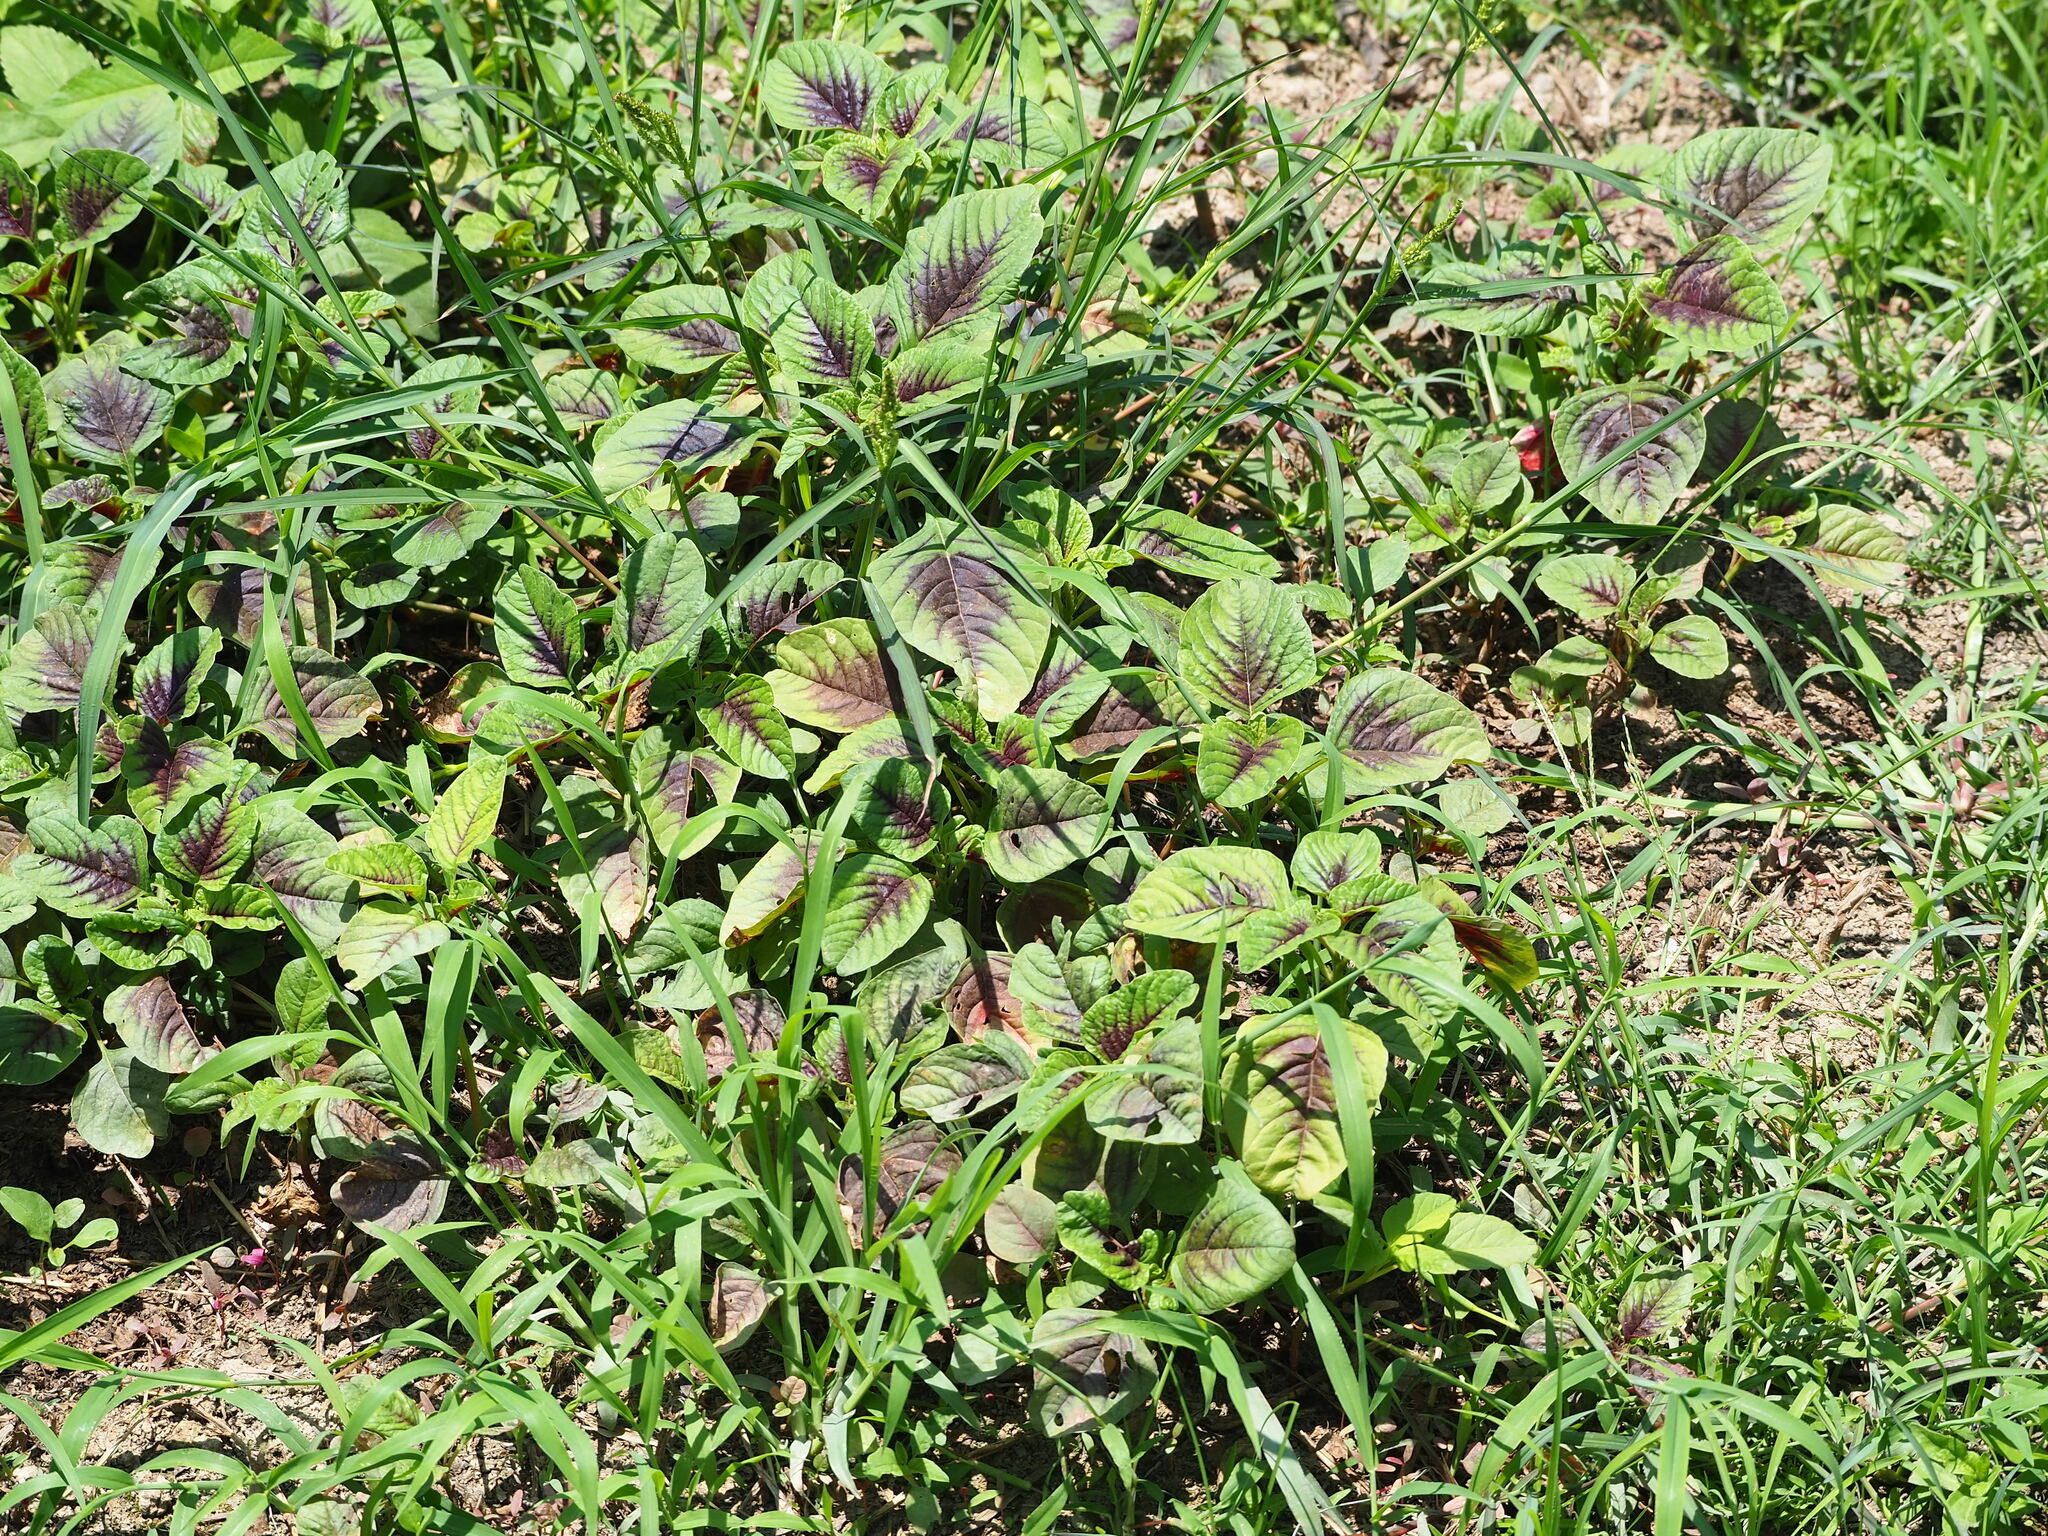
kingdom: Plantae
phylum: Tracheophyta
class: Magnoliopsida
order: Caryophyllales
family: Amaranthaceae
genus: Amaranthus
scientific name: Amaranthus tricolor
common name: Joseph's-coat
